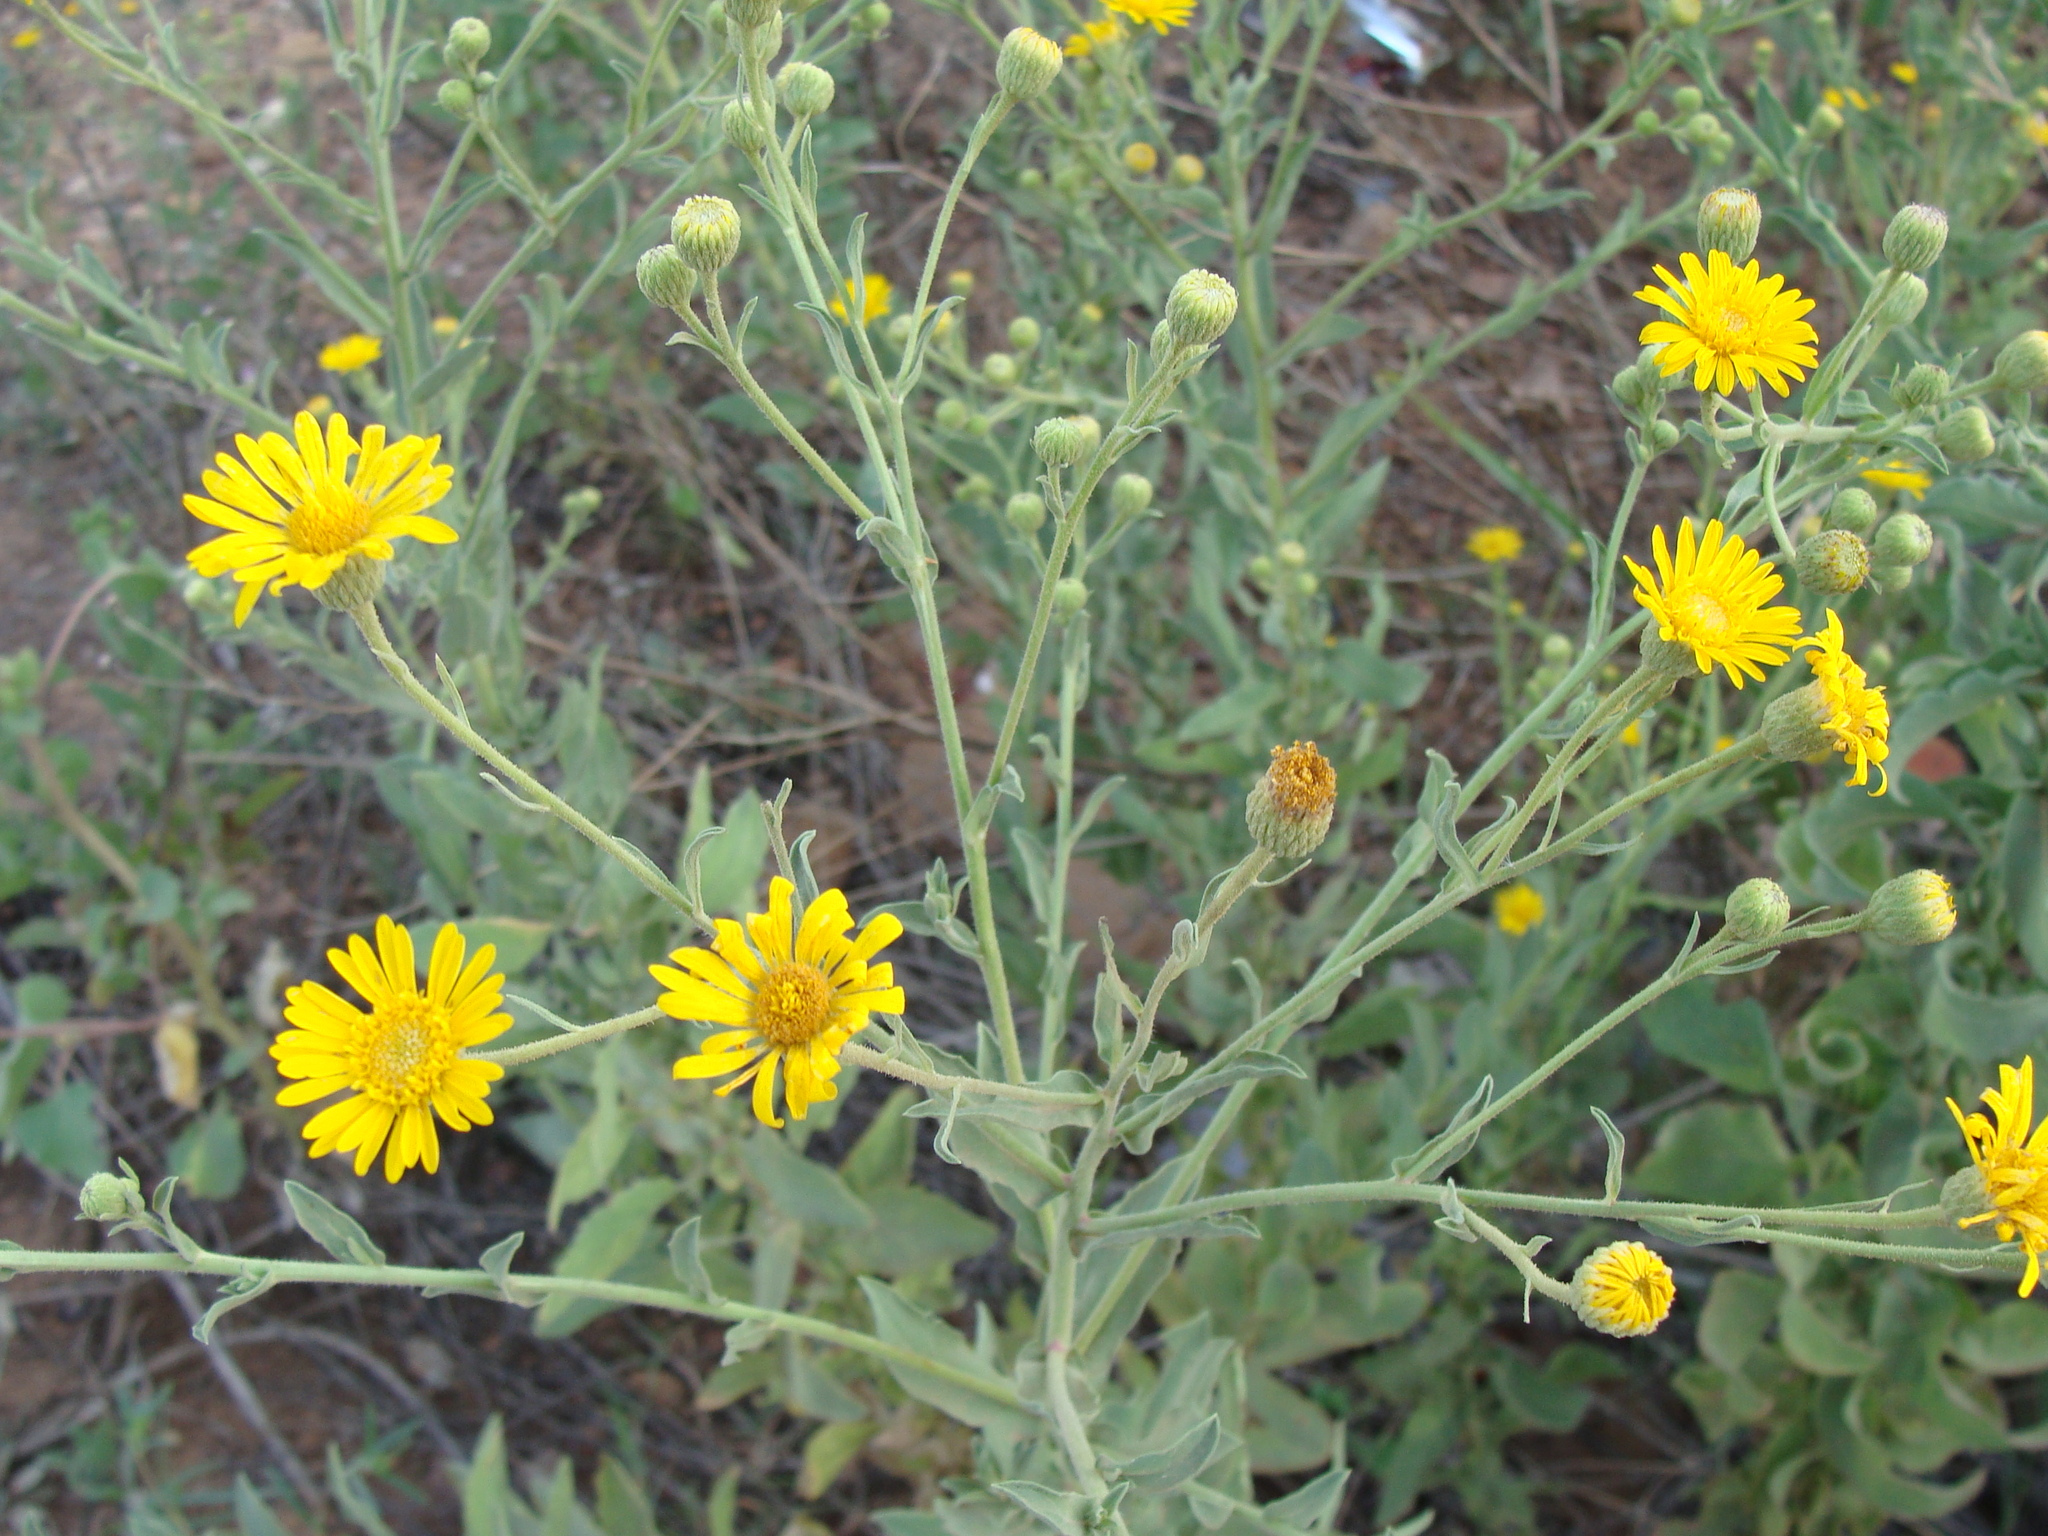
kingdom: Plantae
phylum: Tracheophyta
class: Magnoliopsida
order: Asterales
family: Asteraceae
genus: Heterotheca
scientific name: Heterotheca subaxillaris
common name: Camphorweed
